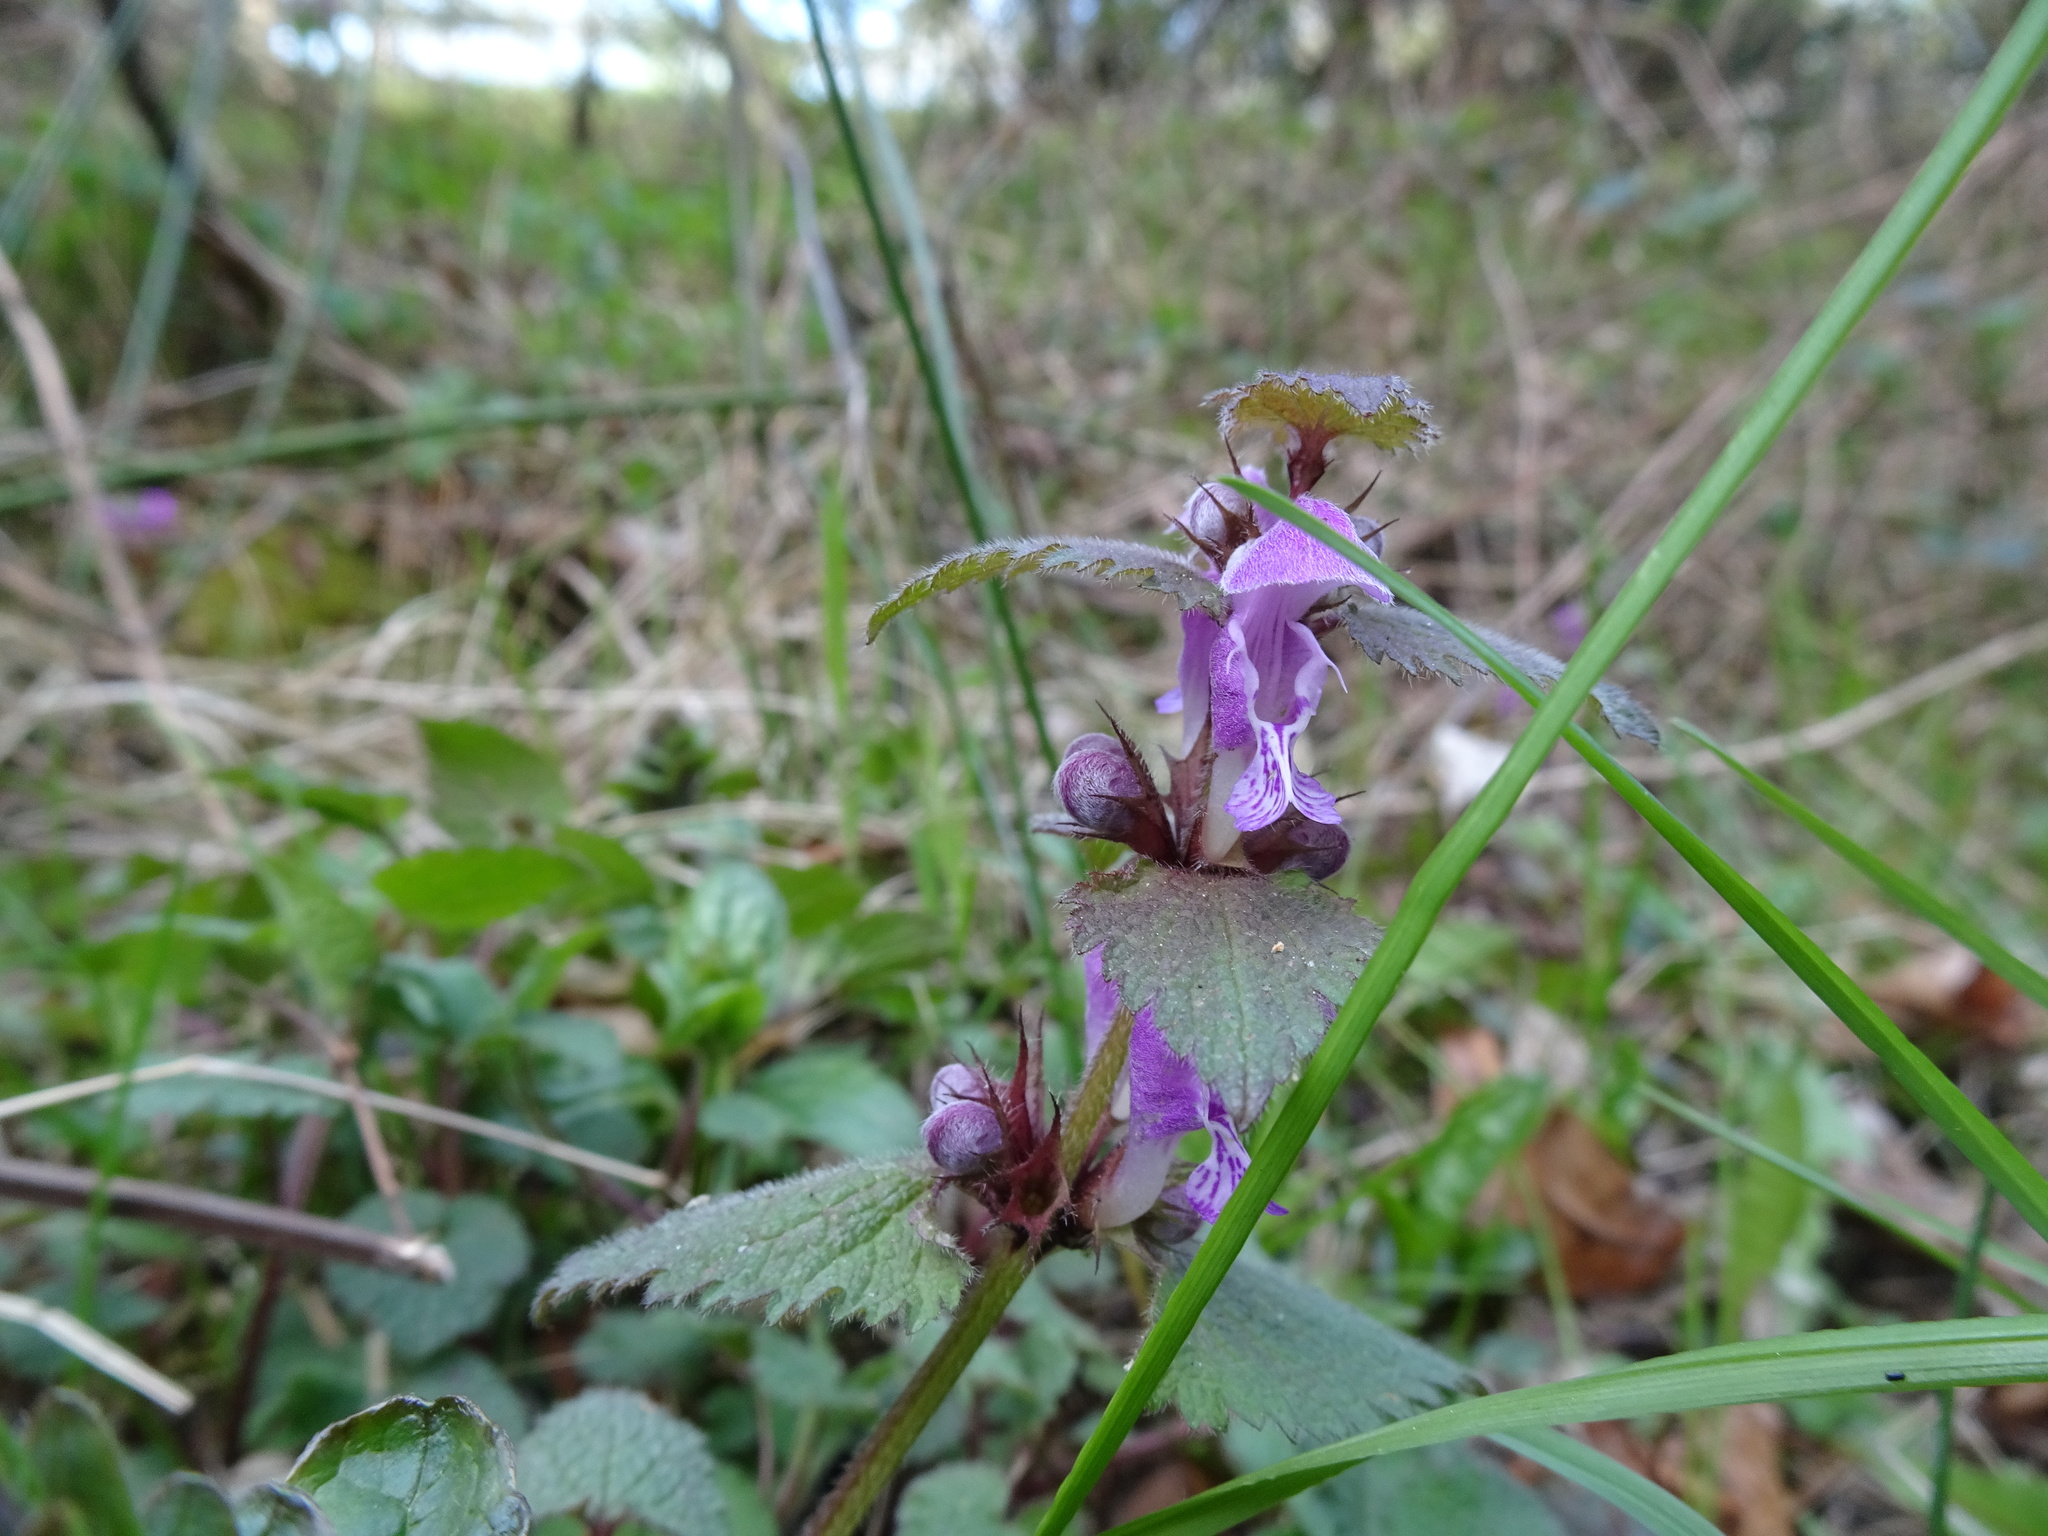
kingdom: Plantae
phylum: Tracheophyta
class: Magnoliopsida
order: Lamiales
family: Lamiaceae
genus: Lamium
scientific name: Lamium maculatum
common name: Spotted dead-nettle
